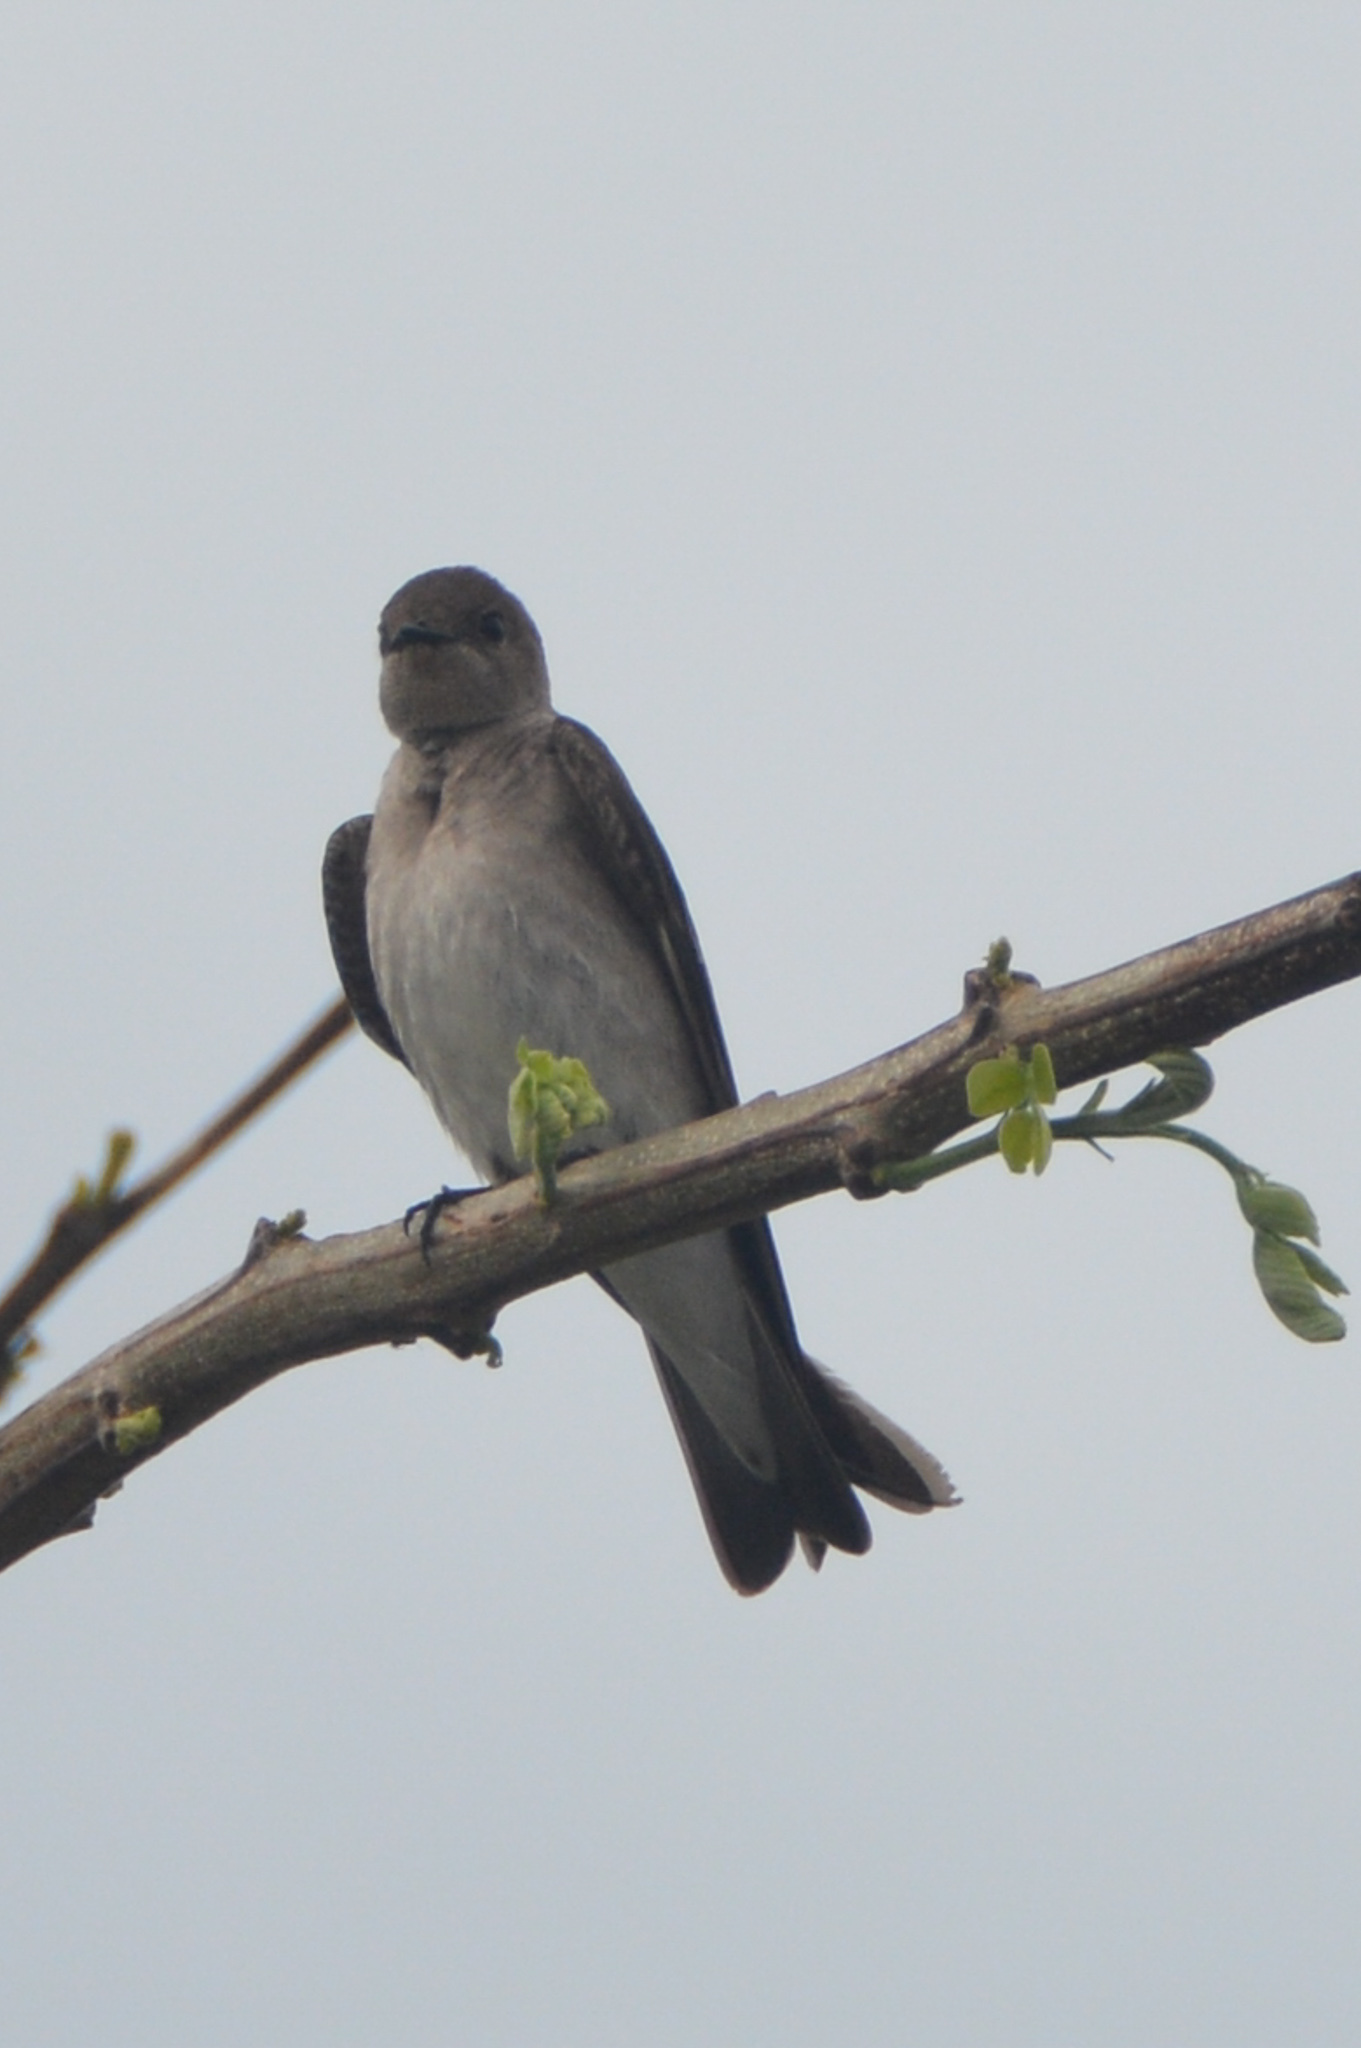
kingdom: Animalia
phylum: Chordata
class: Aves
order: Passeriformes
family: Hirundinidae
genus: Stelgidopteryx
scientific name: Stelgidopteryx serripennis
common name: Northern rough-winged swallow
